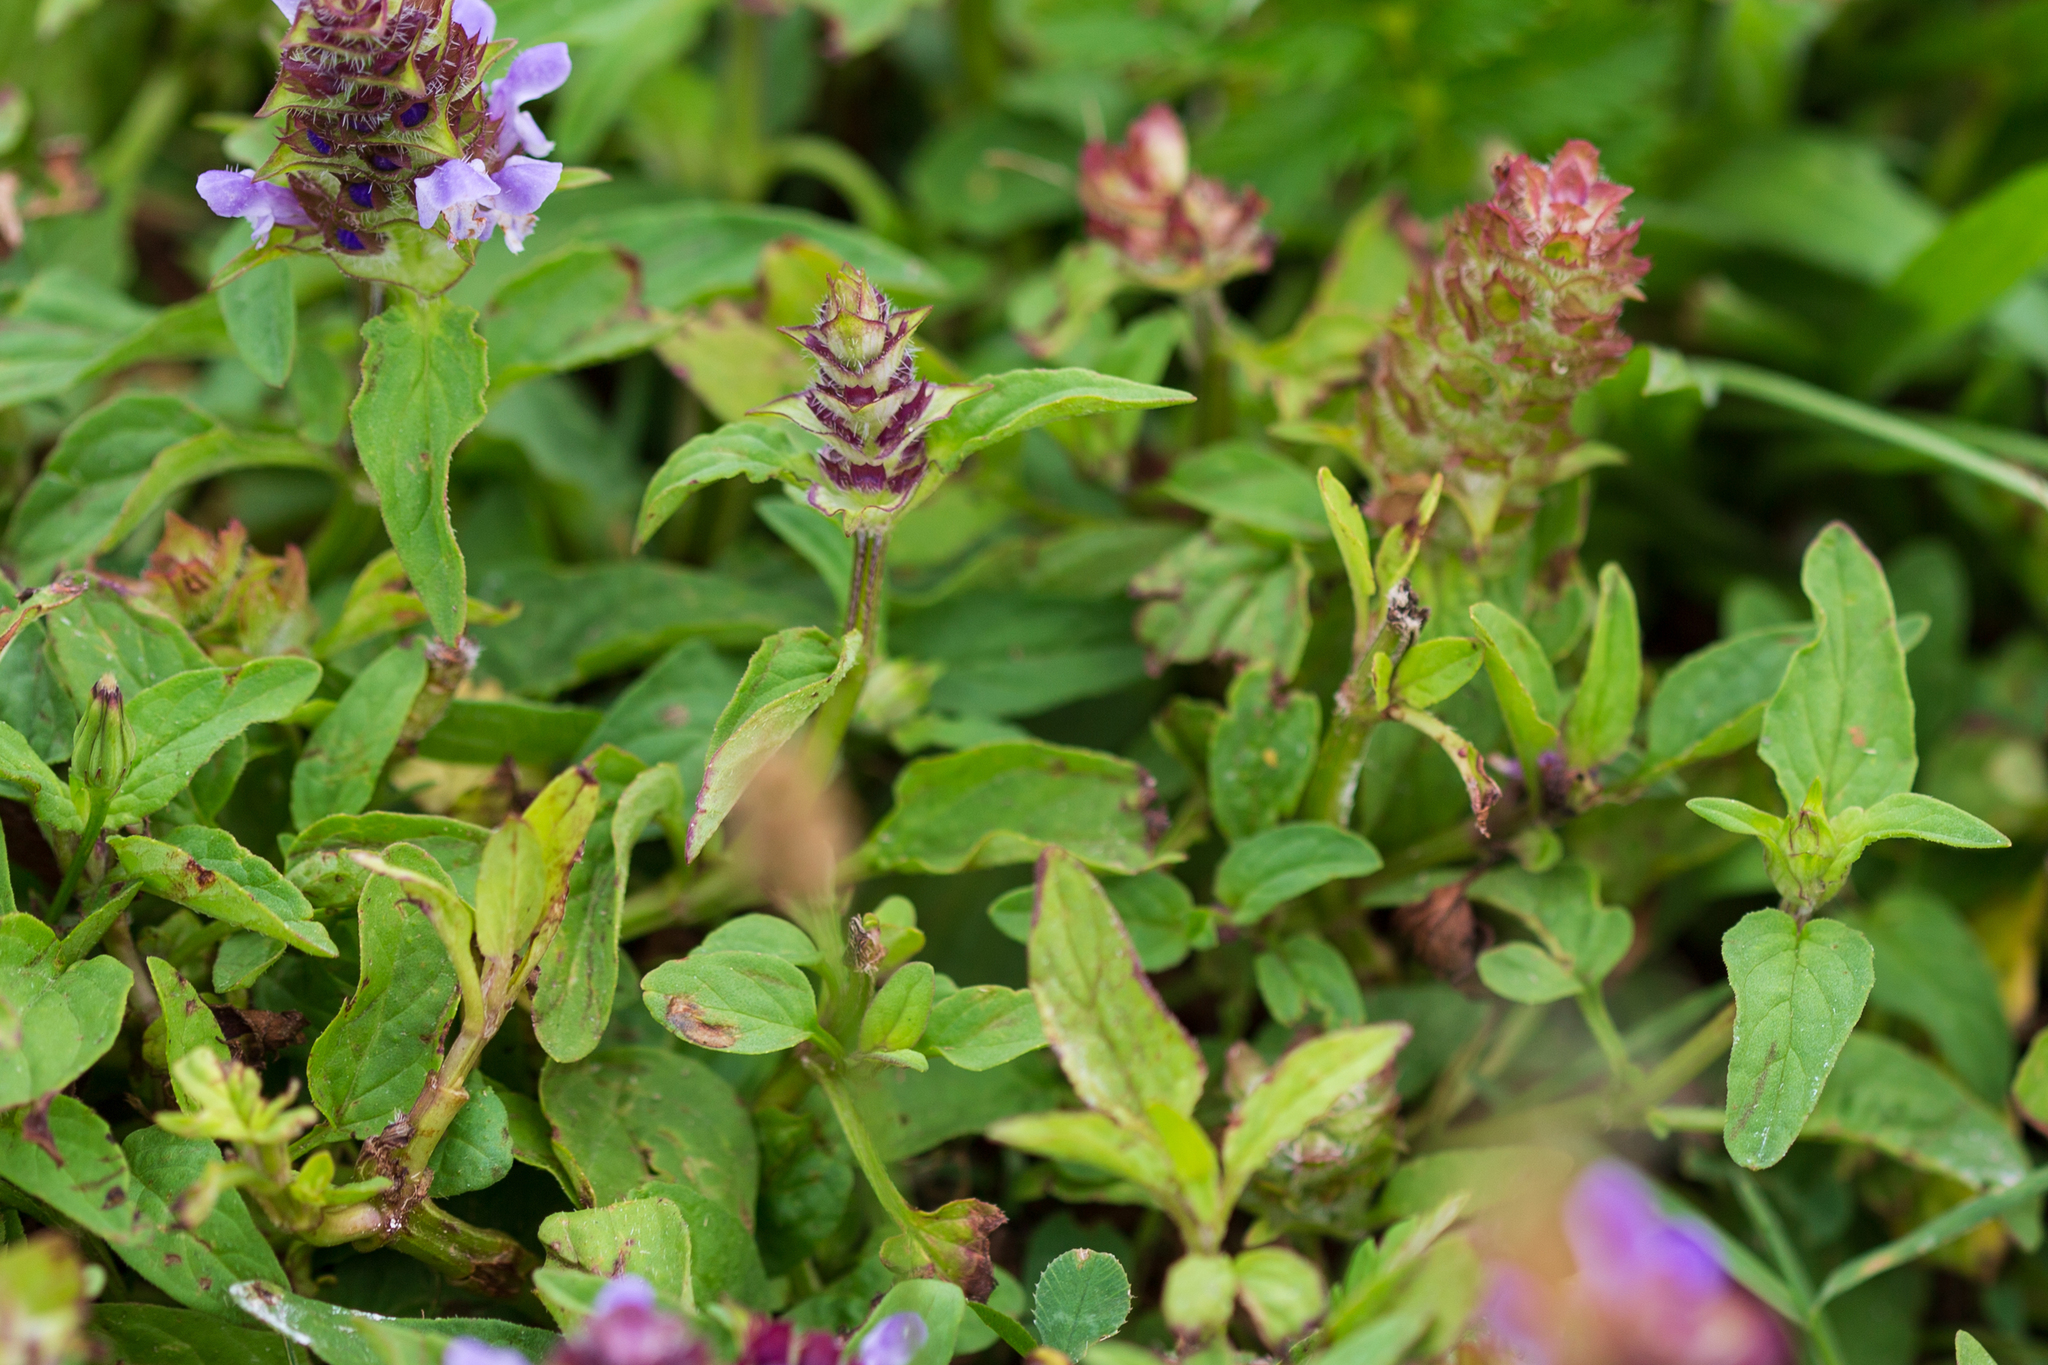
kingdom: Plantae
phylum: Tracheophyta
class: Magnoliopsida
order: Lamiales
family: Lamiaceae
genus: Prunella
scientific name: Prunella vulgaris
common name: Heal-all
